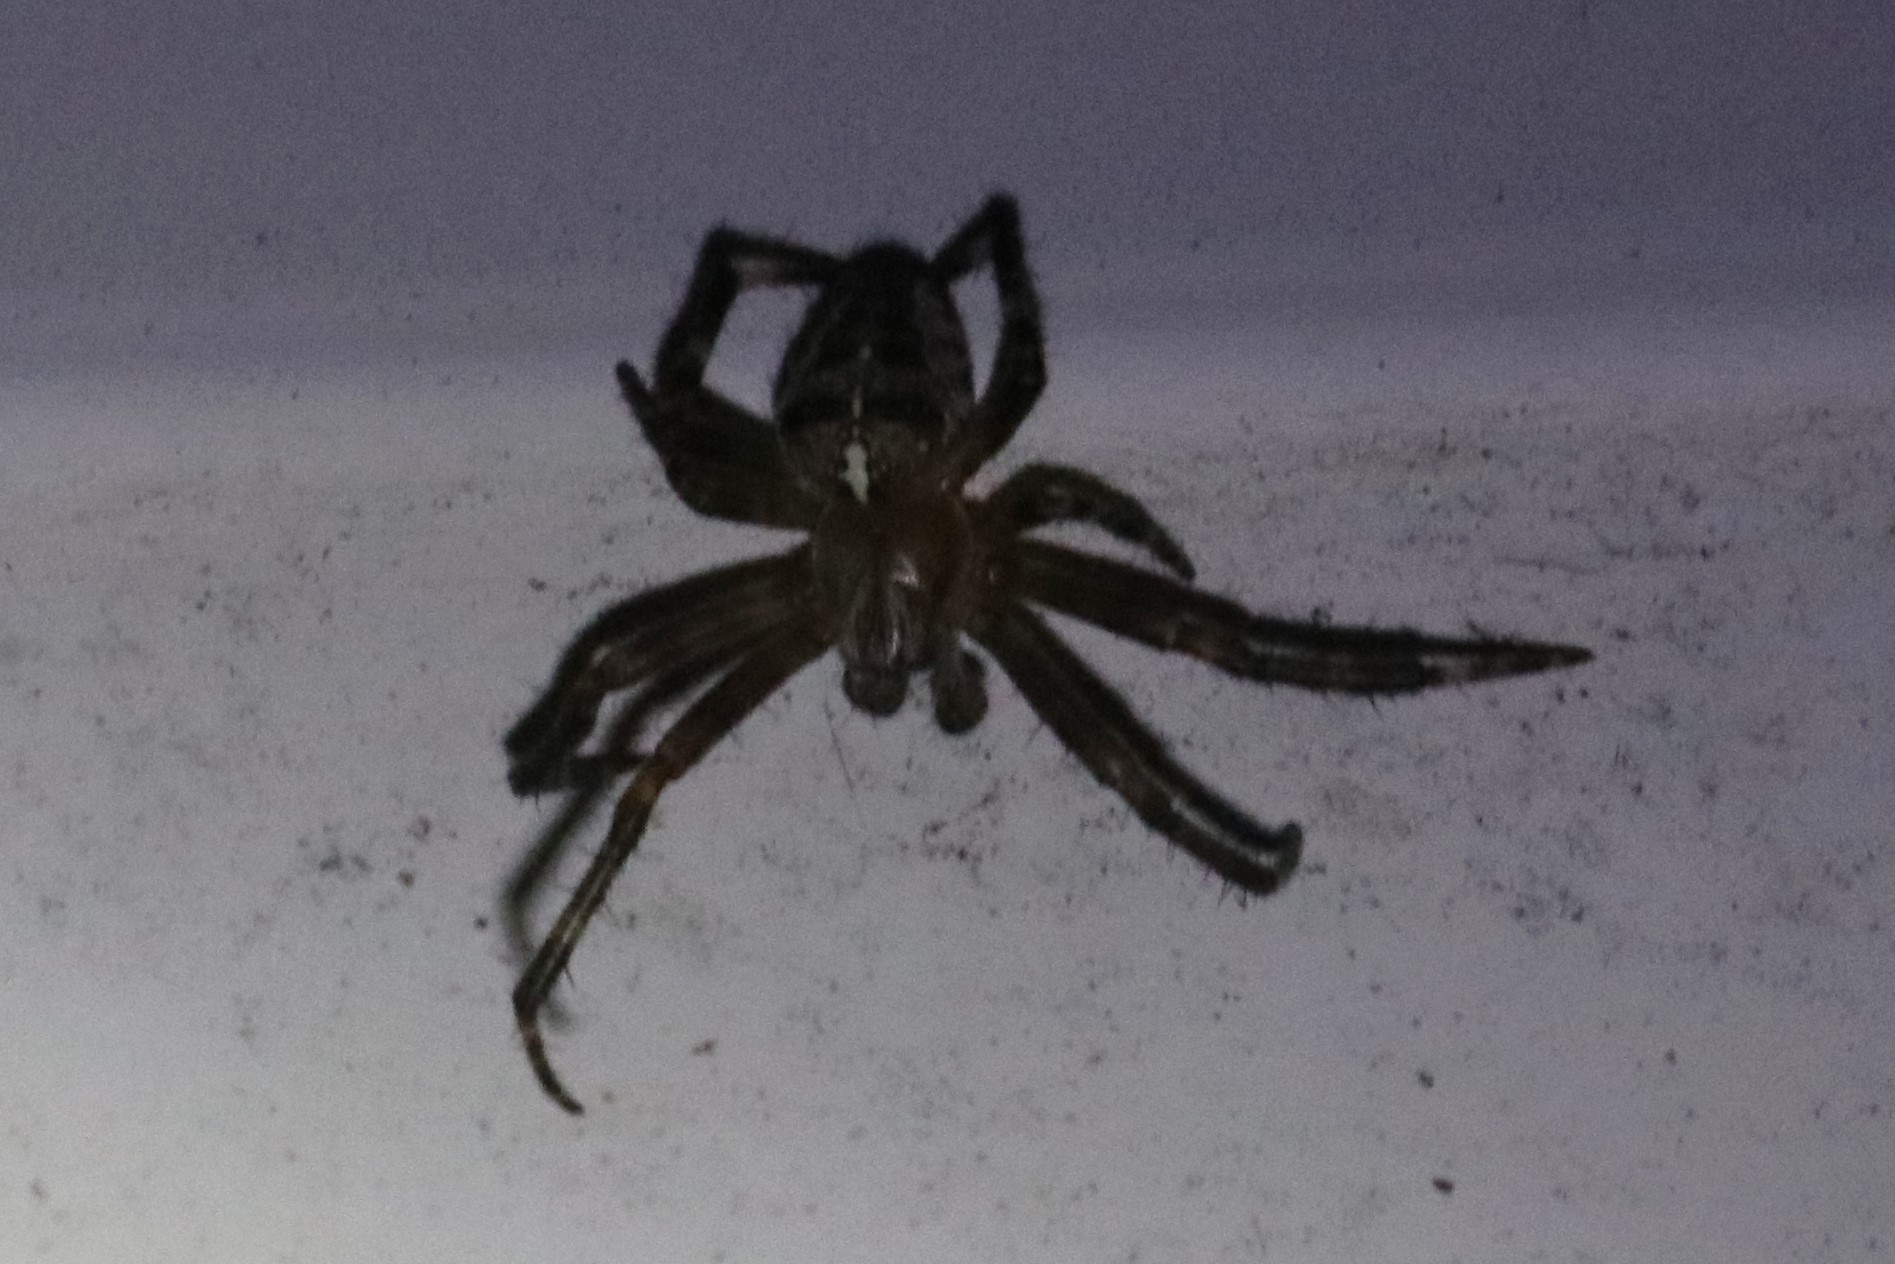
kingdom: Animalia
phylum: Arthropoda
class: Arachnida
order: Araneae
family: Araneidae
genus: Araneus
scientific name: Araneus diadematus
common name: Cross orbweaver
